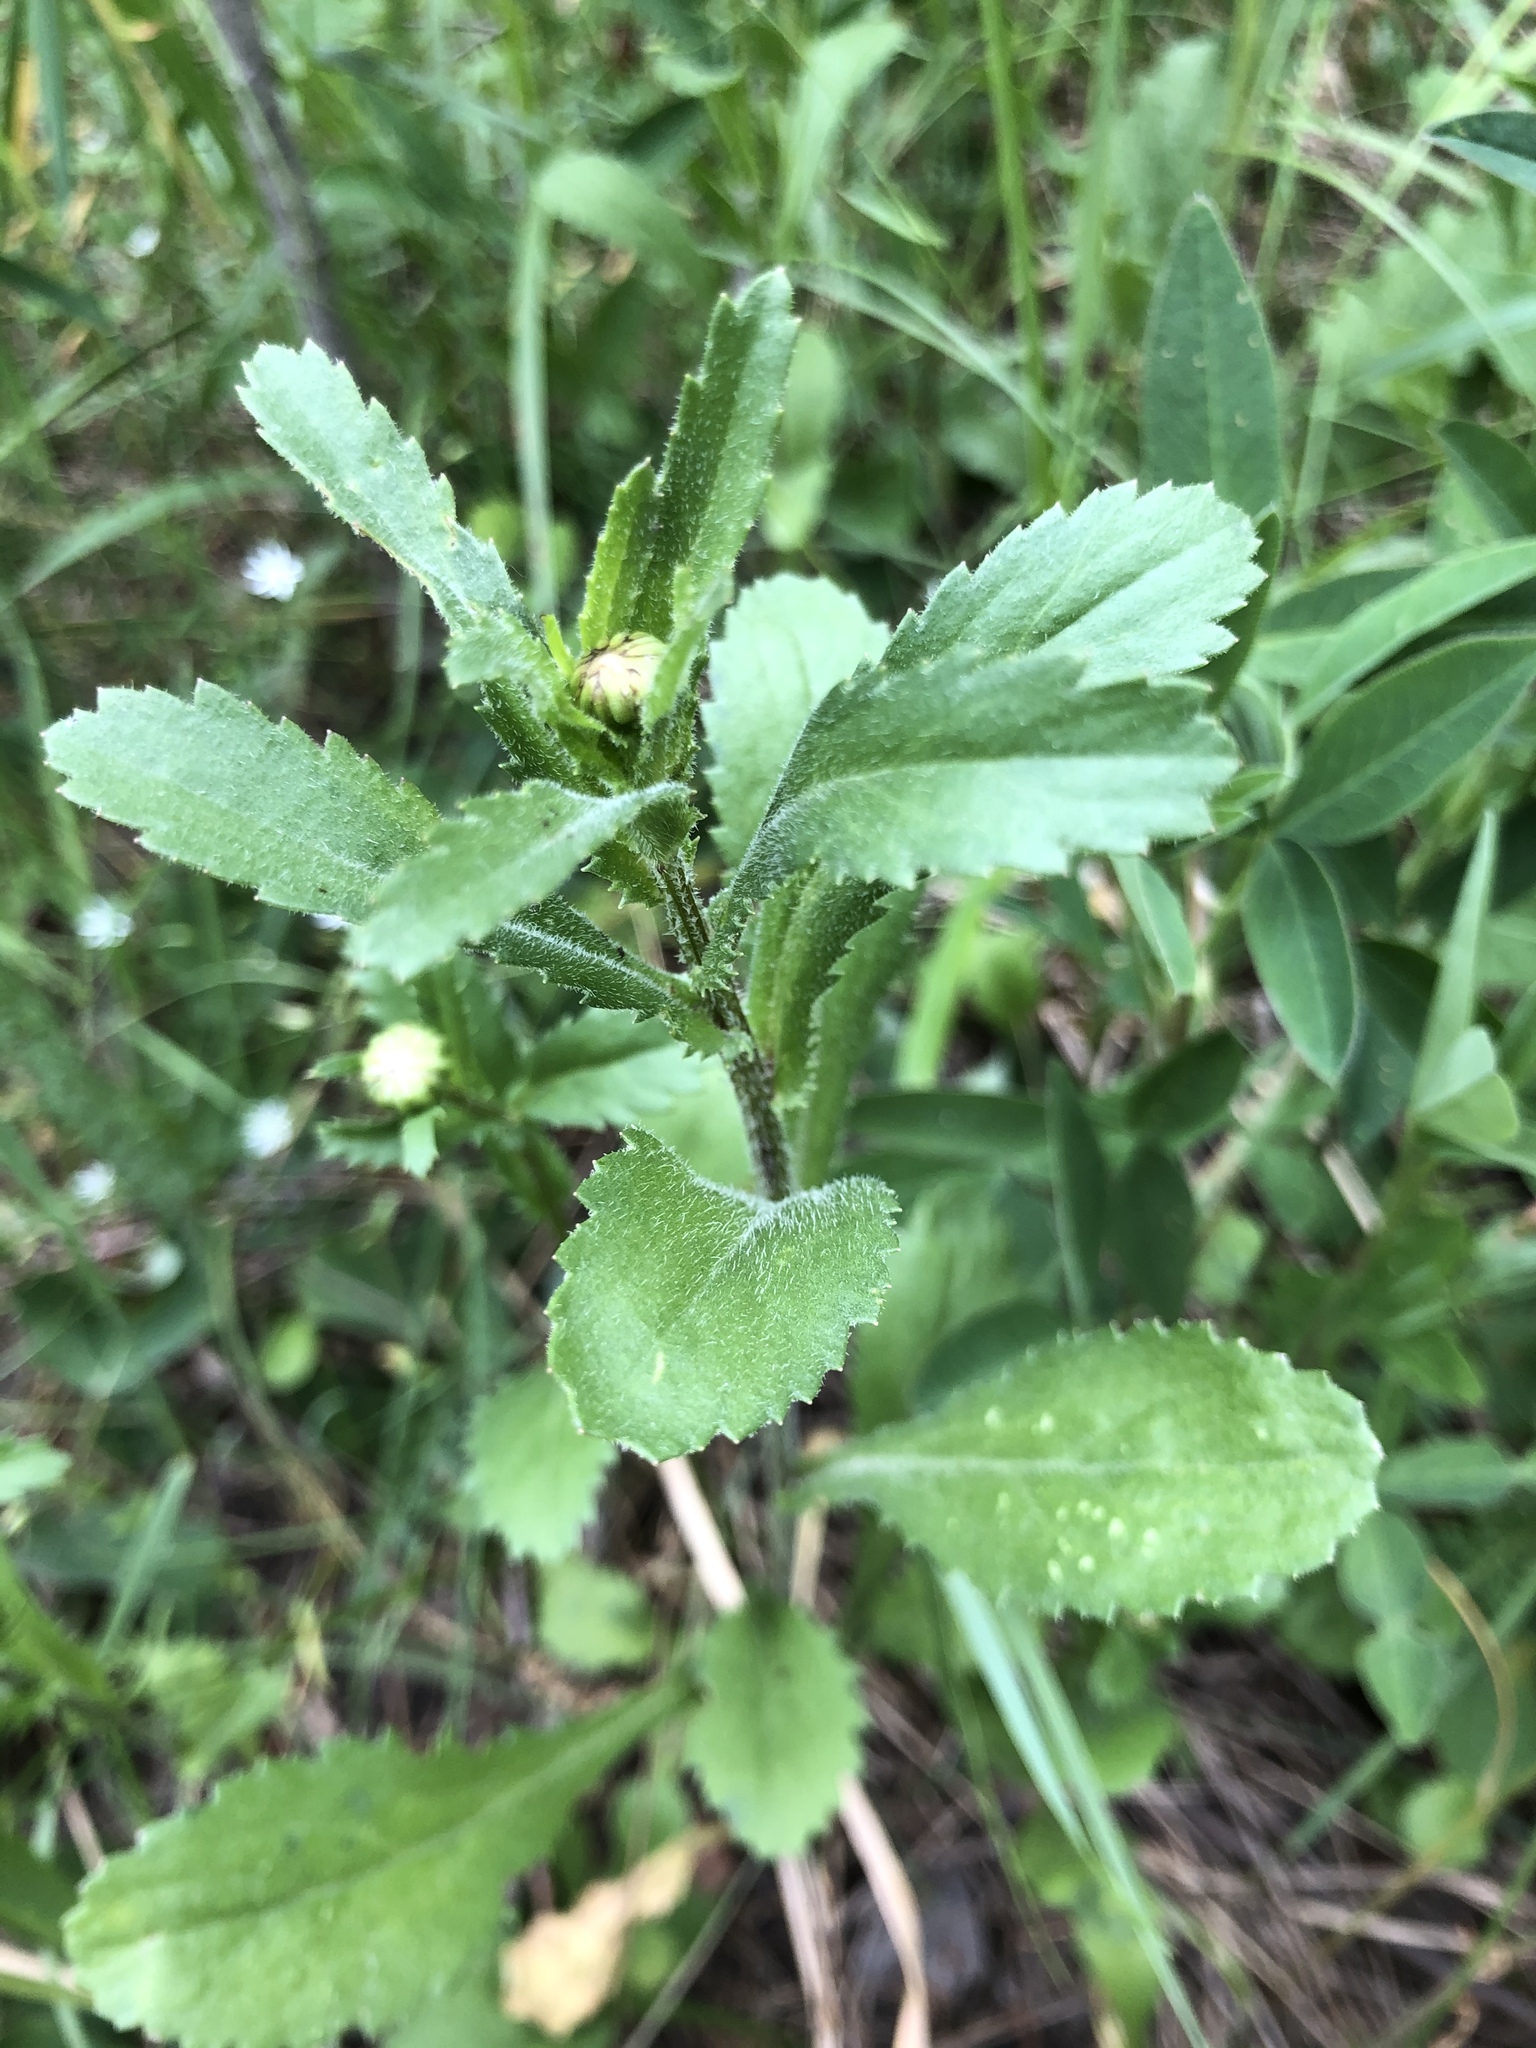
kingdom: Plantae
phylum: Tracheophyta
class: Magnoliopsida
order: Asterales
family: Asteraceae
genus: Leucanthemum
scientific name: Leucanthemum vulgare
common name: Oxeye daisy
